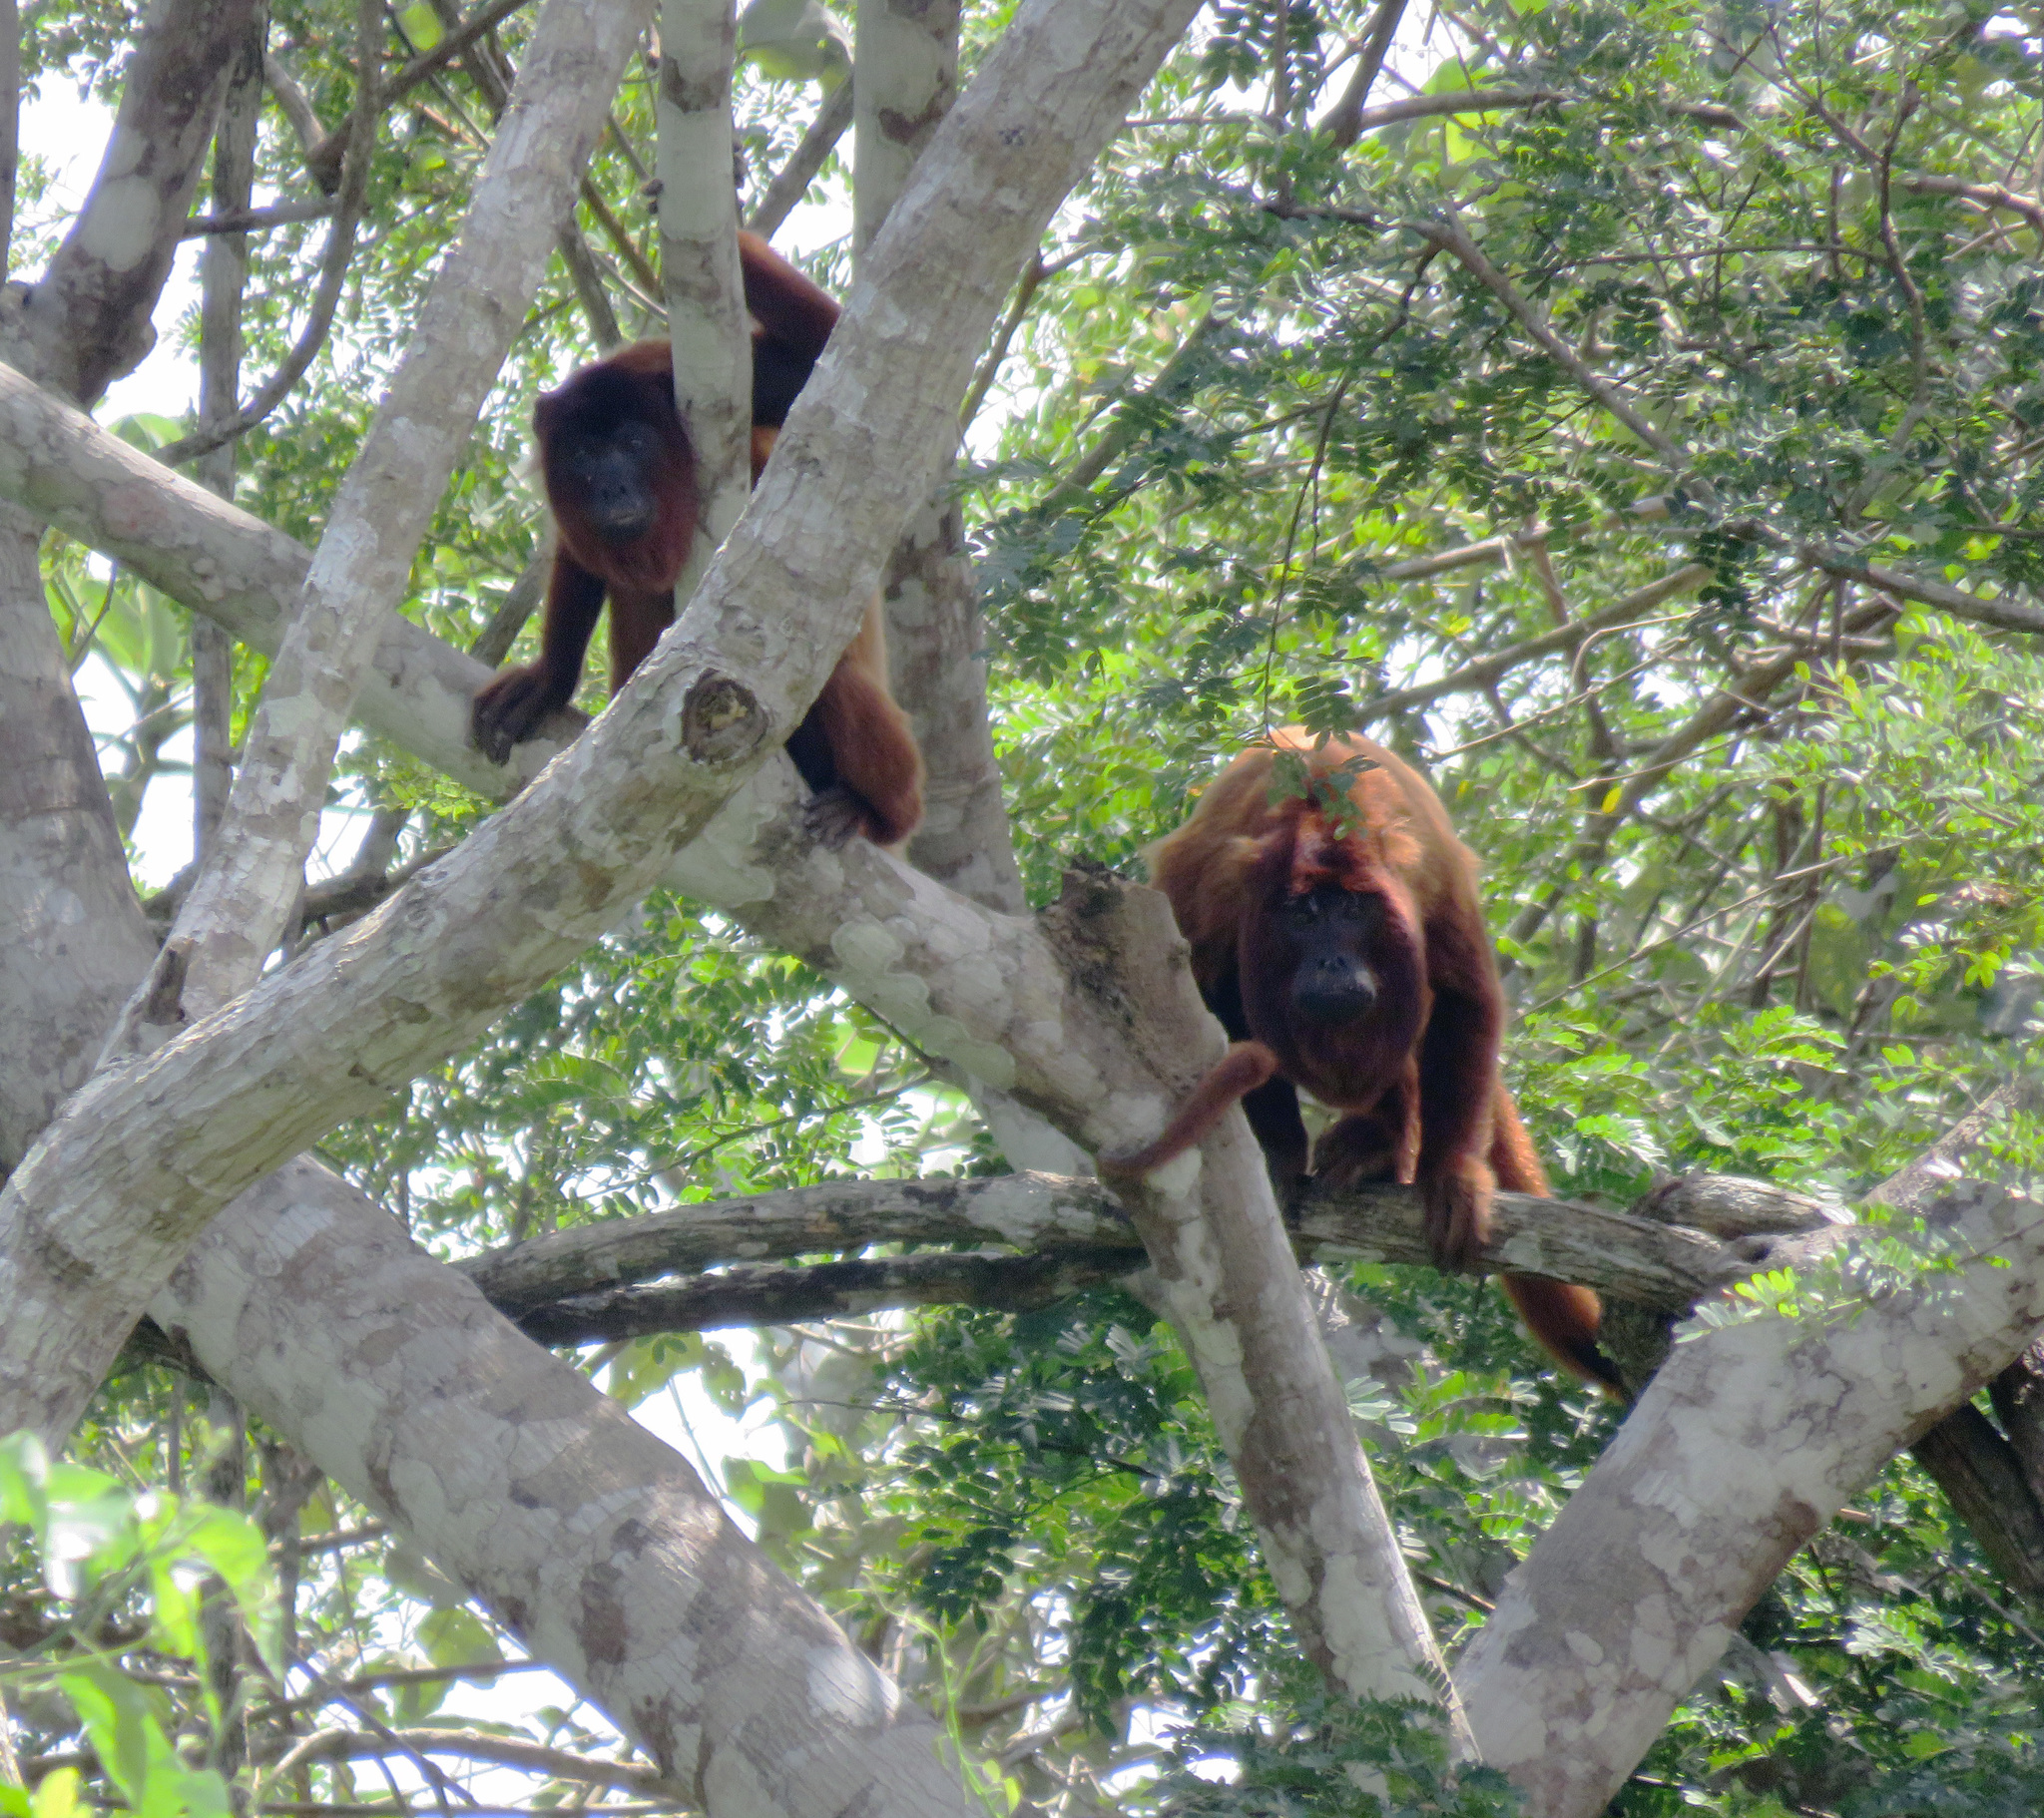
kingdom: Animalia
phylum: Chordata
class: Mammalia
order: Primates
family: Atelidae
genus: Alouatta
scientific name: Alouatta sara
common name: Bolivian red howler
